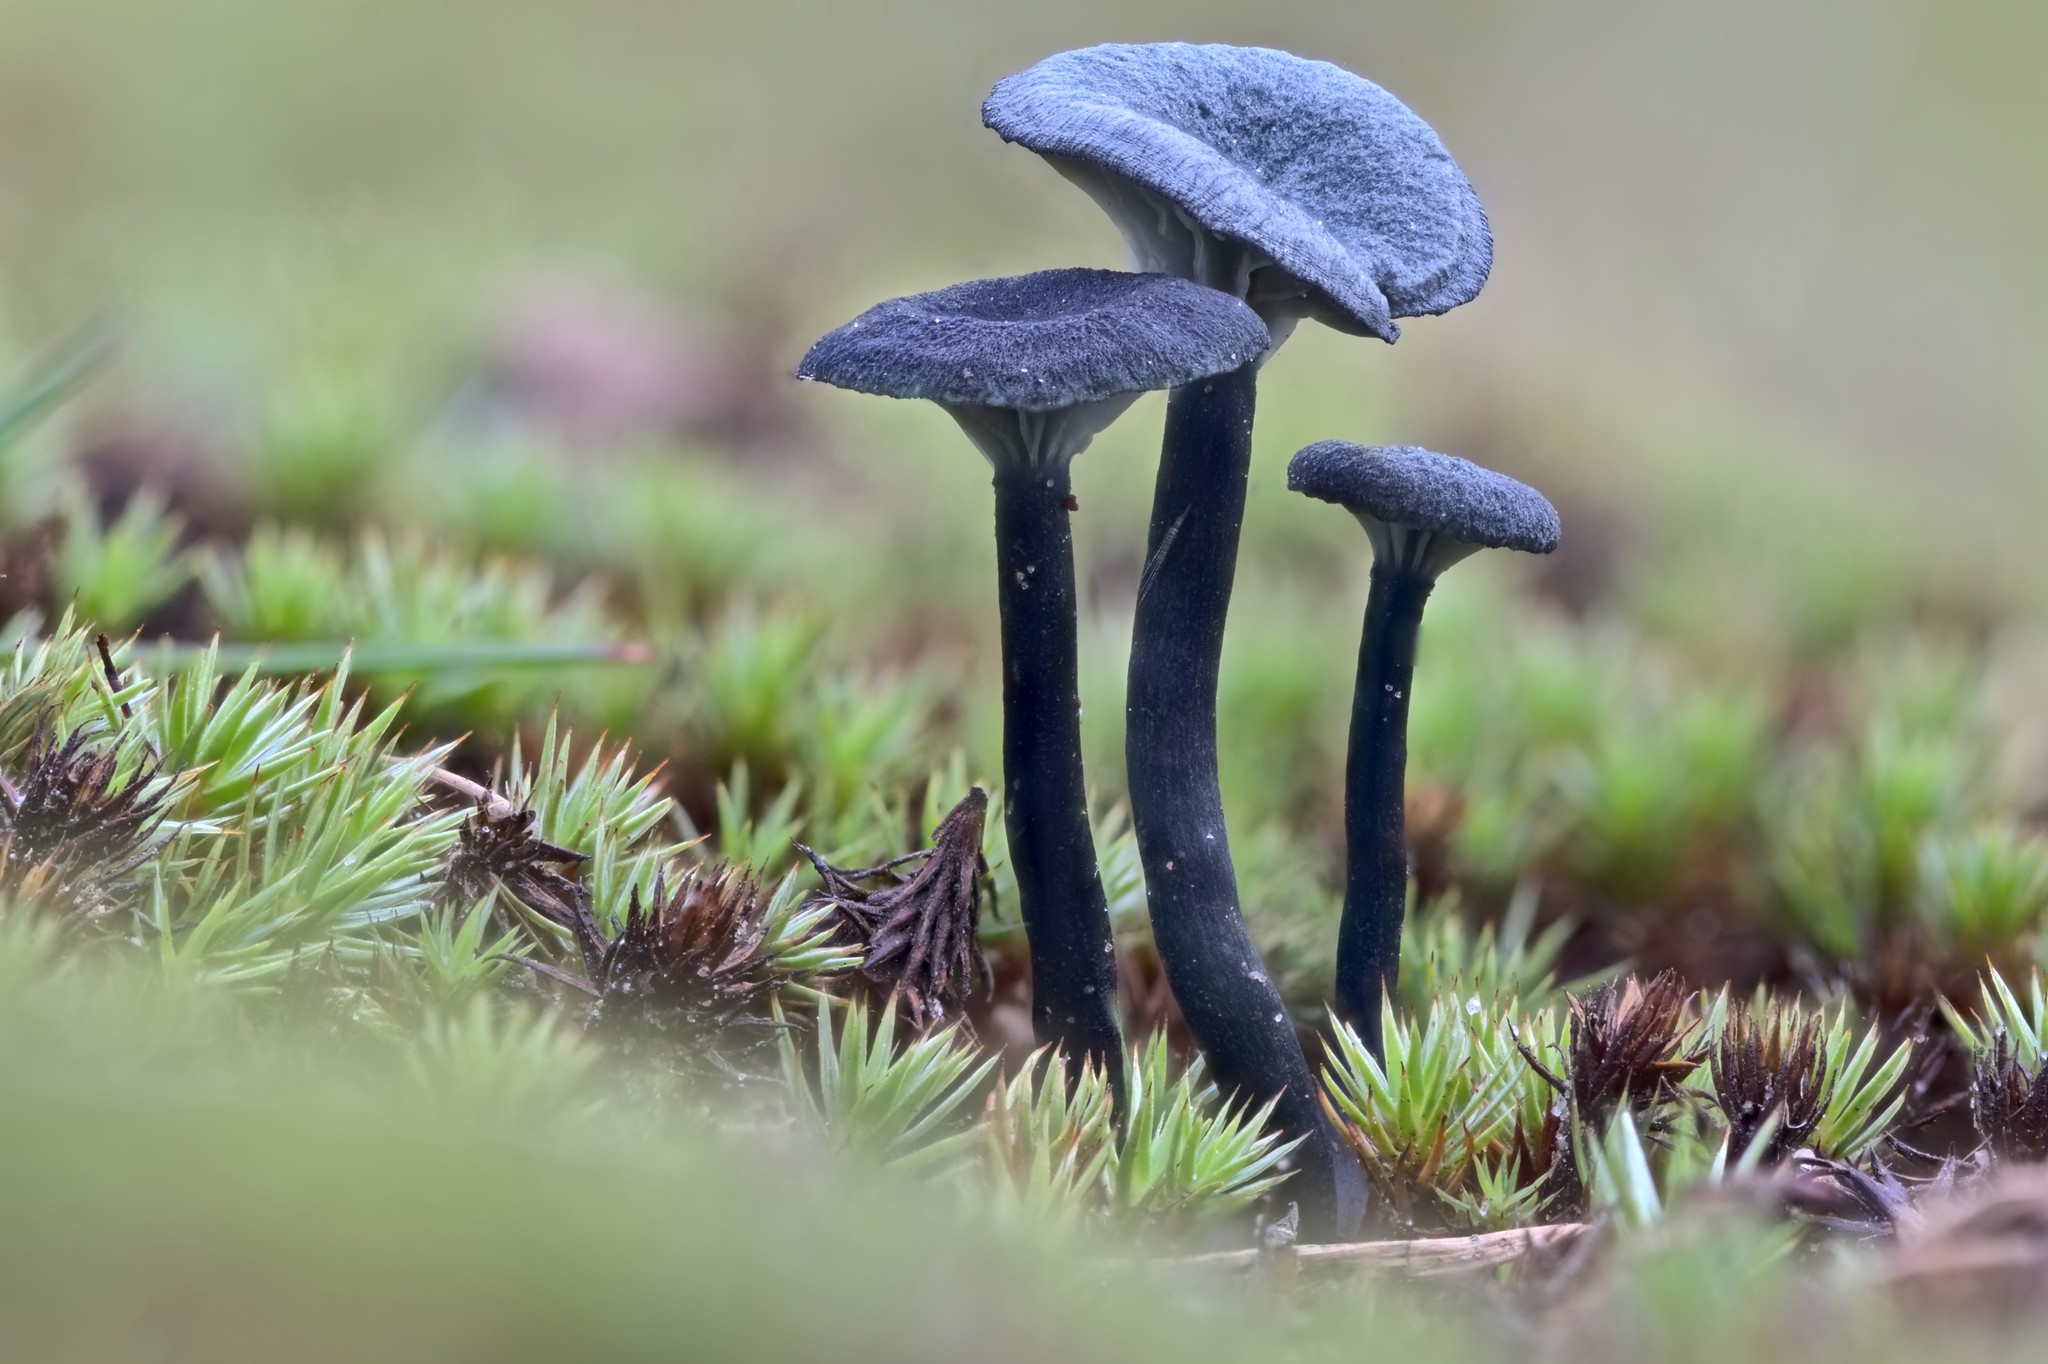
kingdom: Fungi
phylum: Basidiomycota
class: Agaricomycetes
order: Agaricales
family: Hygrophoraceae
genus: Arrhenia
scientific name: Arrhenia chlorocyanea
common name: Verdigris navel
